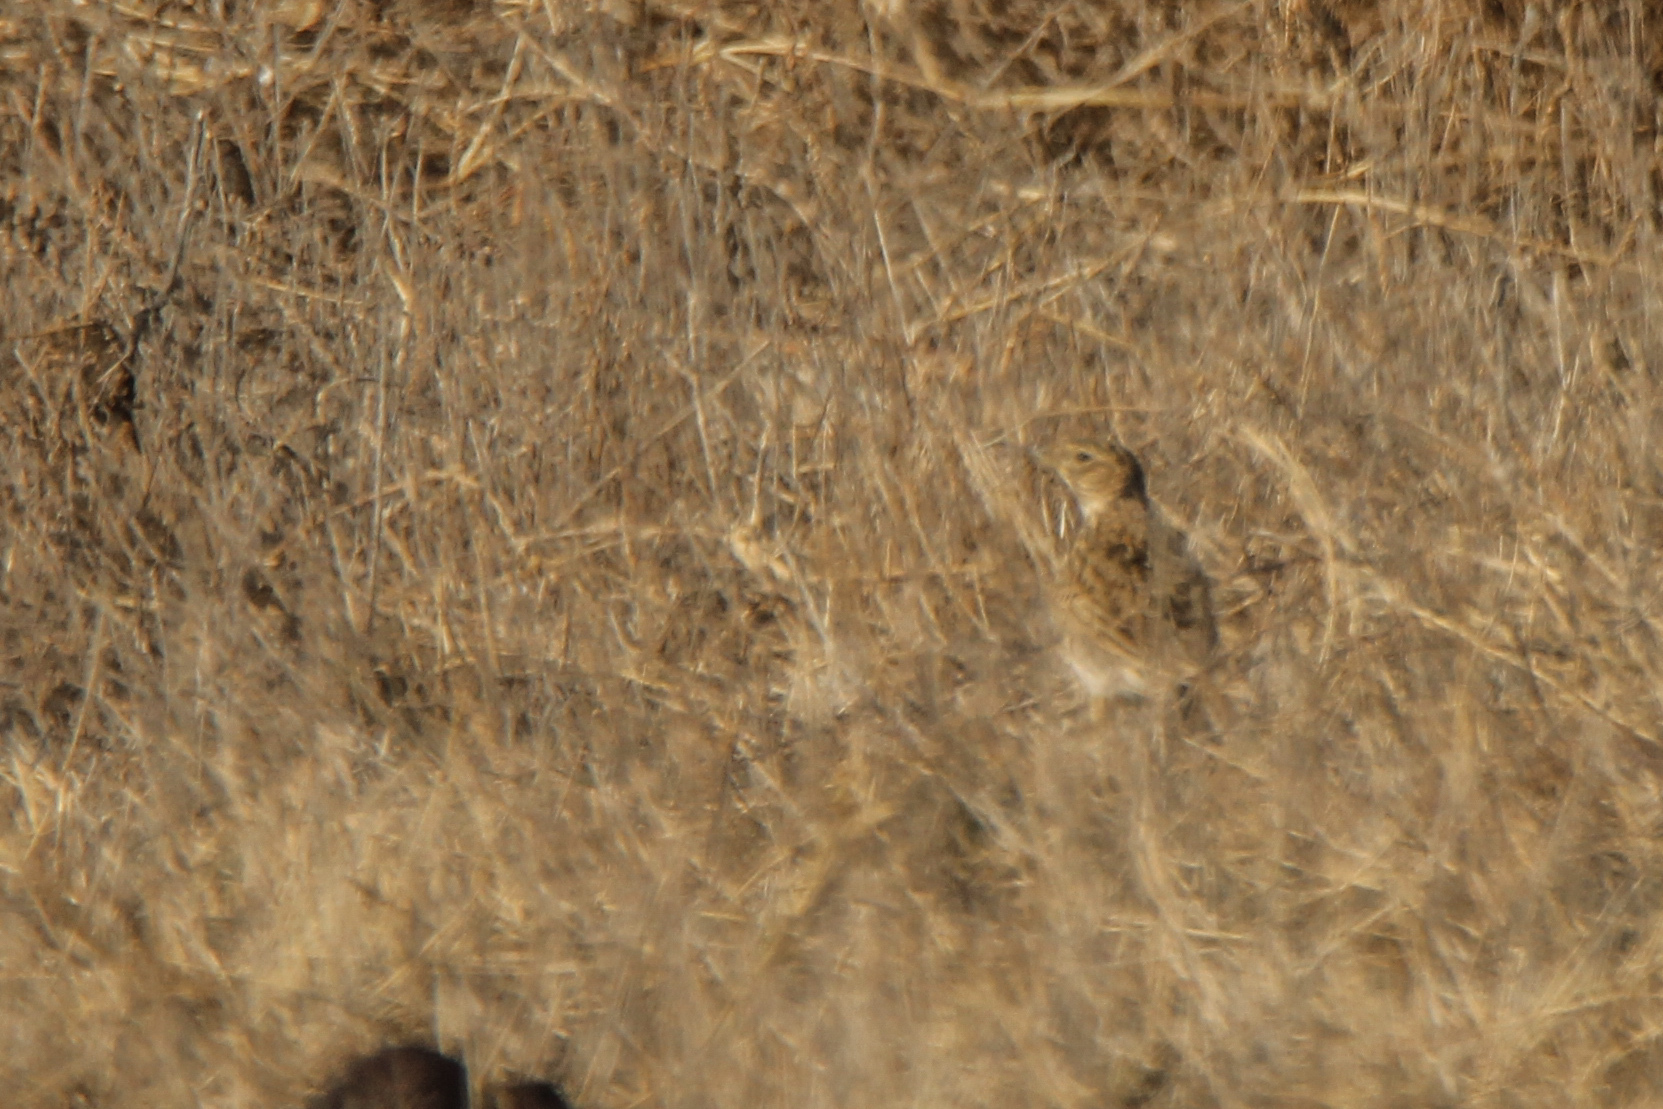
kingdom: Animalia
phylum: Chordata
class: Aves
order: Passeriformes
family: Alaudidae
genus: Melanocorypha
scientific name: Melanocorypha calandra
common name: Calandra lark
